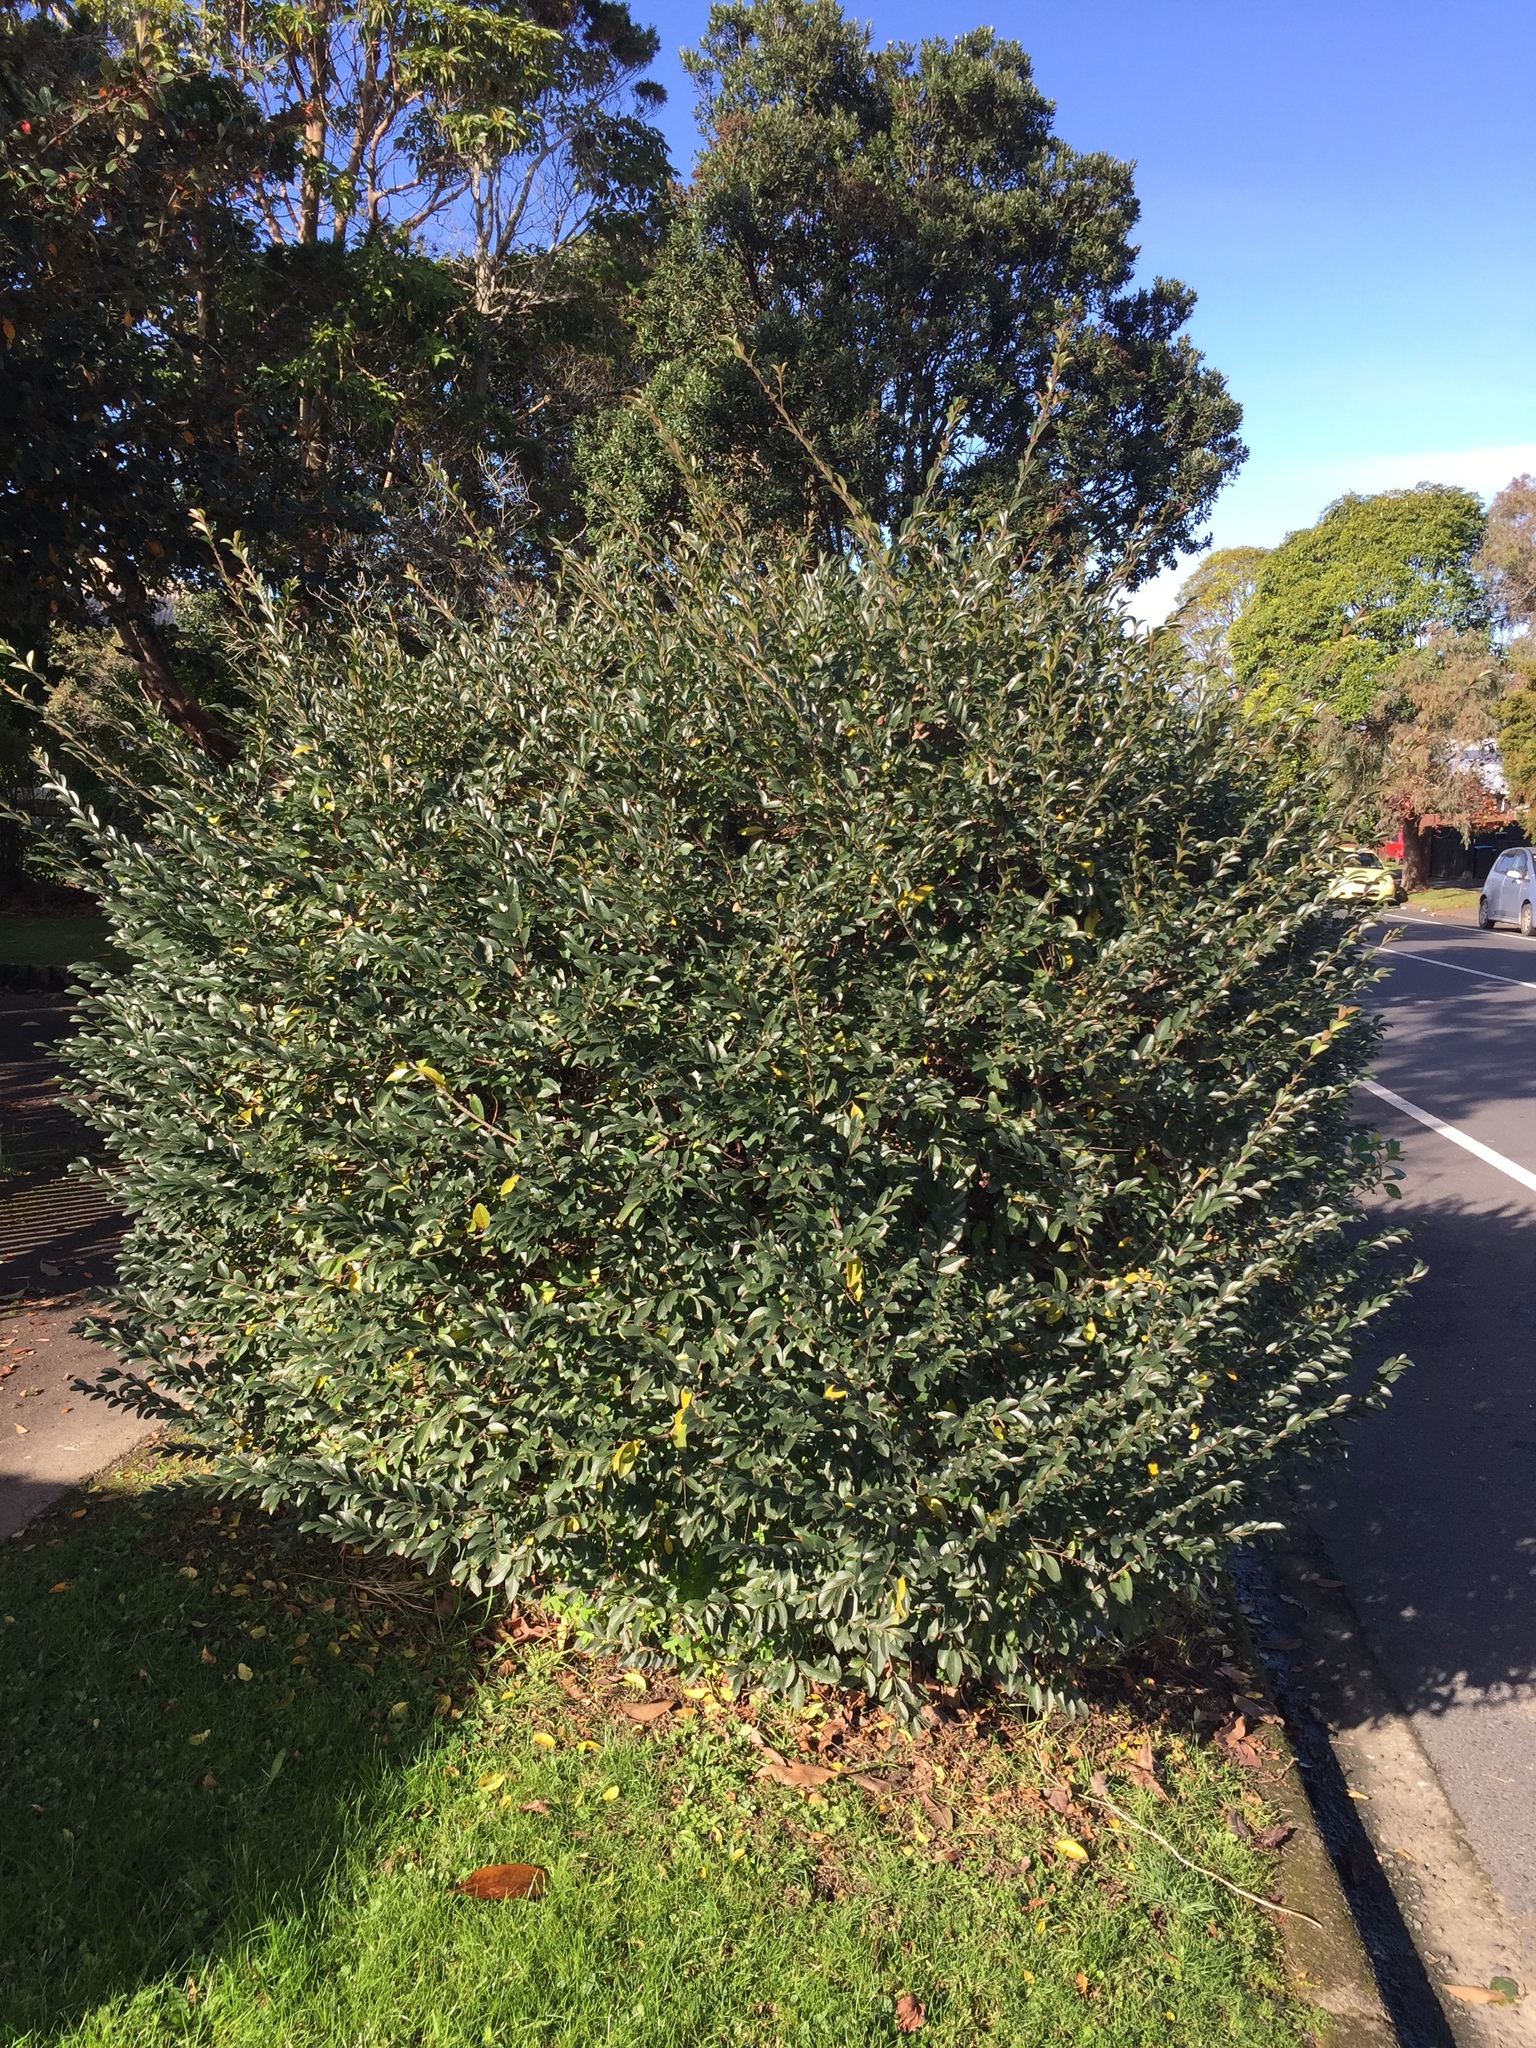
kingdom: Animalia
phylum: Arthropoda
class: Insecta
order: Hemiptera
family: Tingidae
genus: Leptoypha
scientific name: Leptoypha hospita
